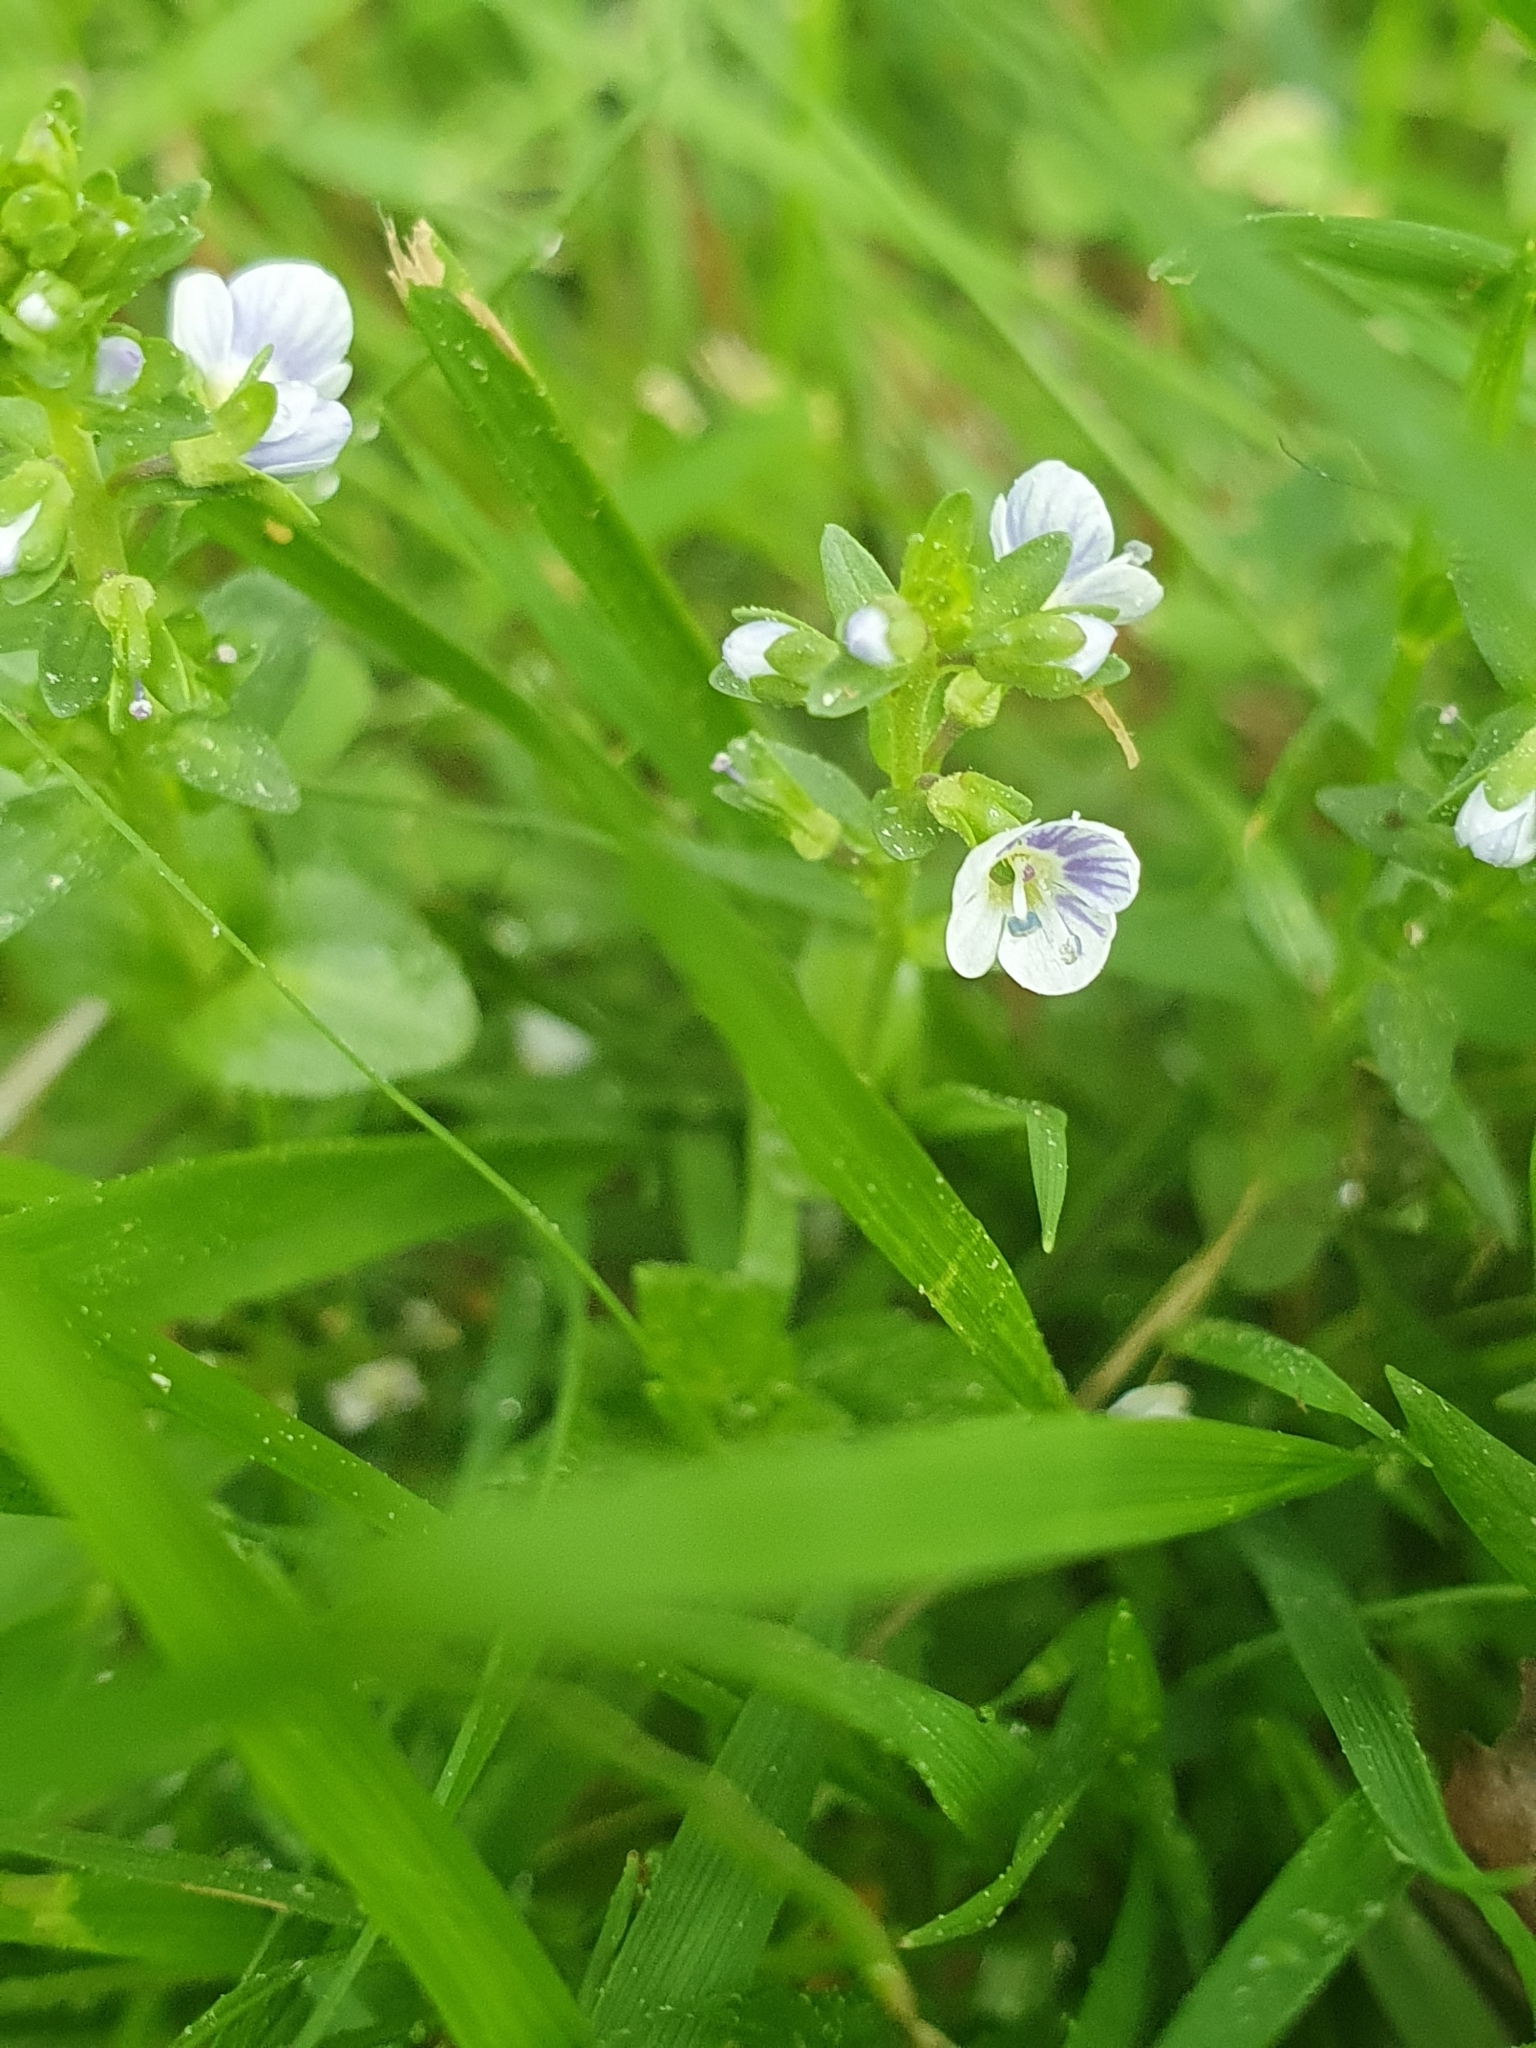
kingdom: Plantae
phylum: Tracheophyta
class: Magnoliopsida
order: Lamiales
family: Plantaginaceae
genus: Veronica
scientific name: Veronica serpyllifolia
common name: Thyme-leaved speedwell
